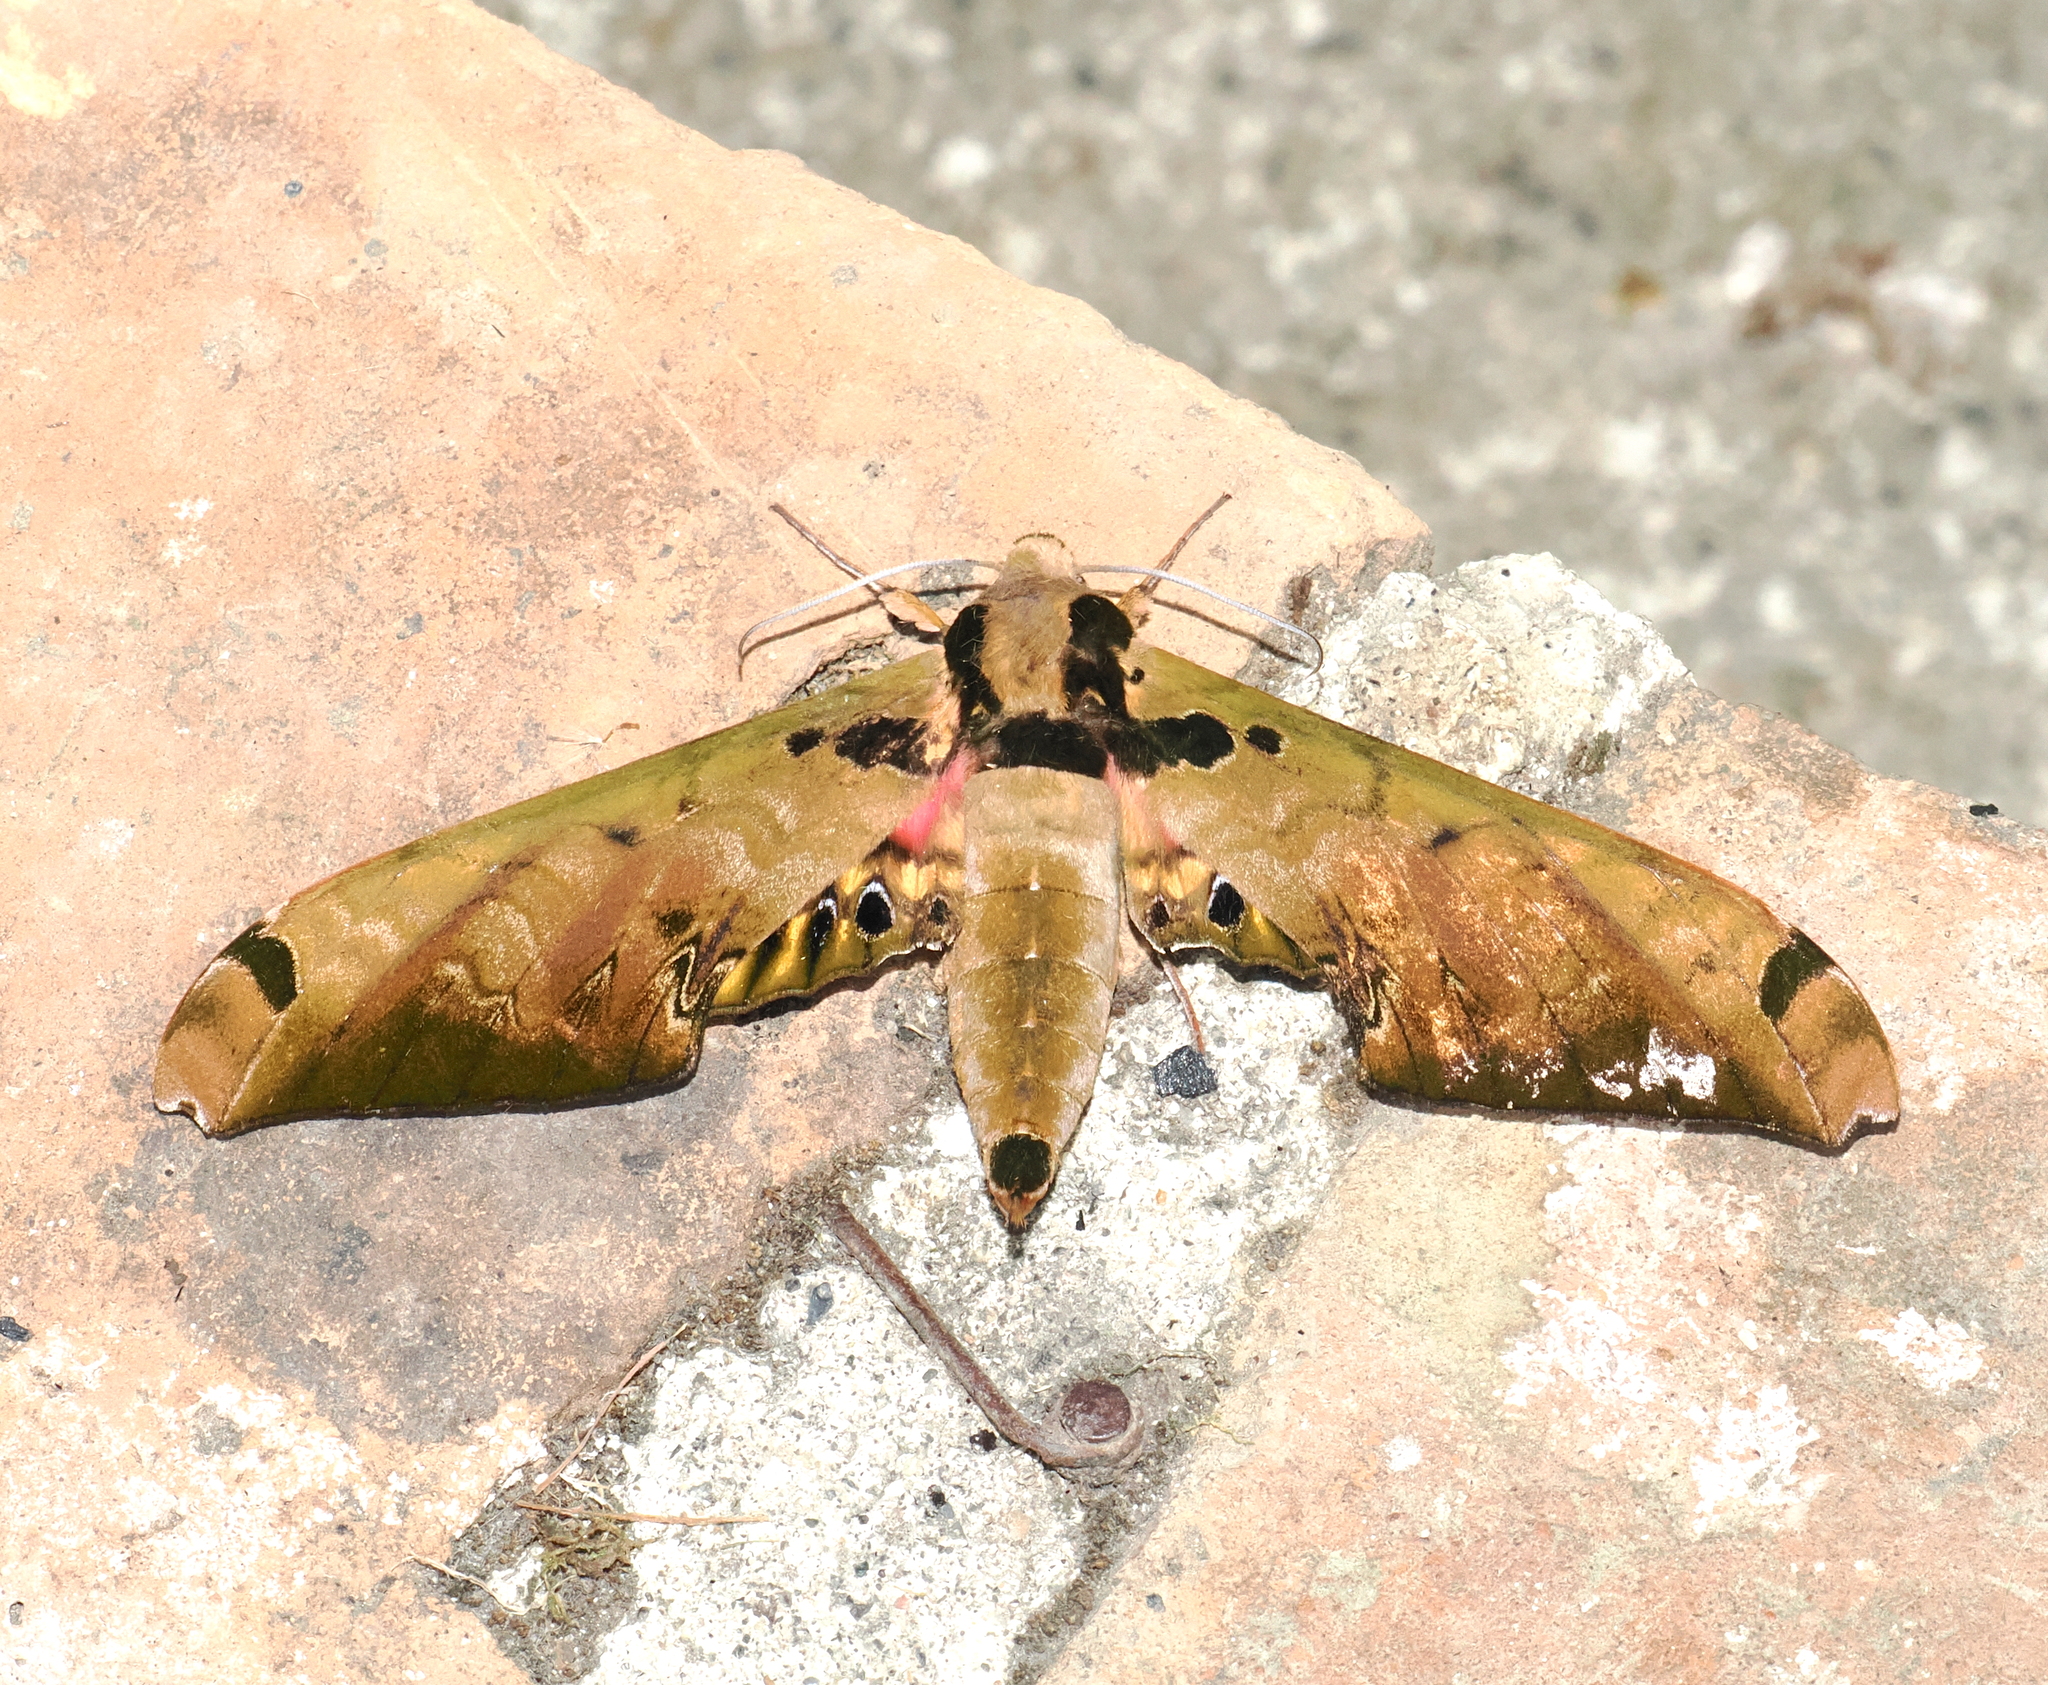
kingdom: Animalia
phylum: Arthropoda
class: Insecta
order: Lepidoptera
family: Sphingidae
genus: Adhemarius
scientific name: Adhemarius sexoculata
